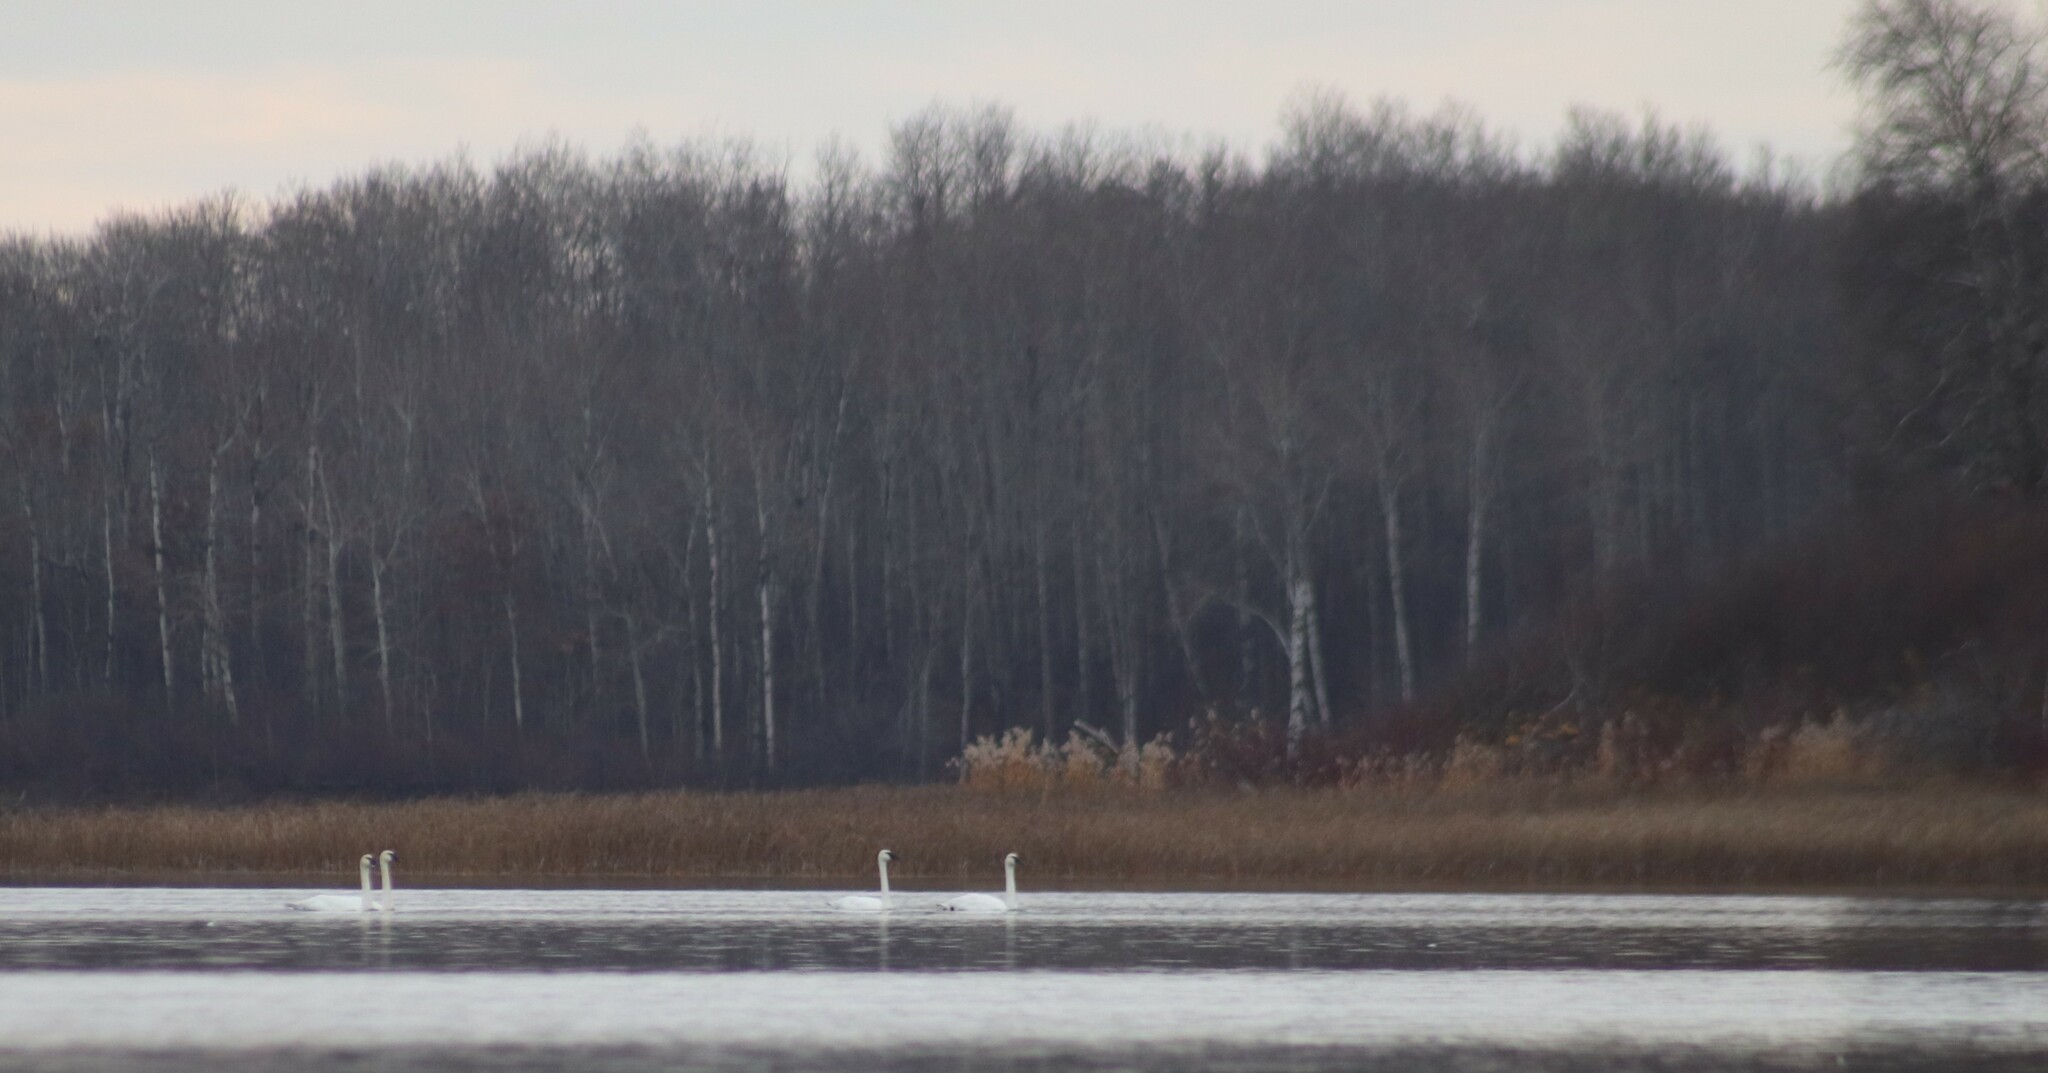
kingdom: Animalia
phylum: Chordata
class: Aves
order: Anseriformes
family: Anatidae
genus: Cygnus
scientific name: Cygnus buccinator
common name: Trumpeter swan
